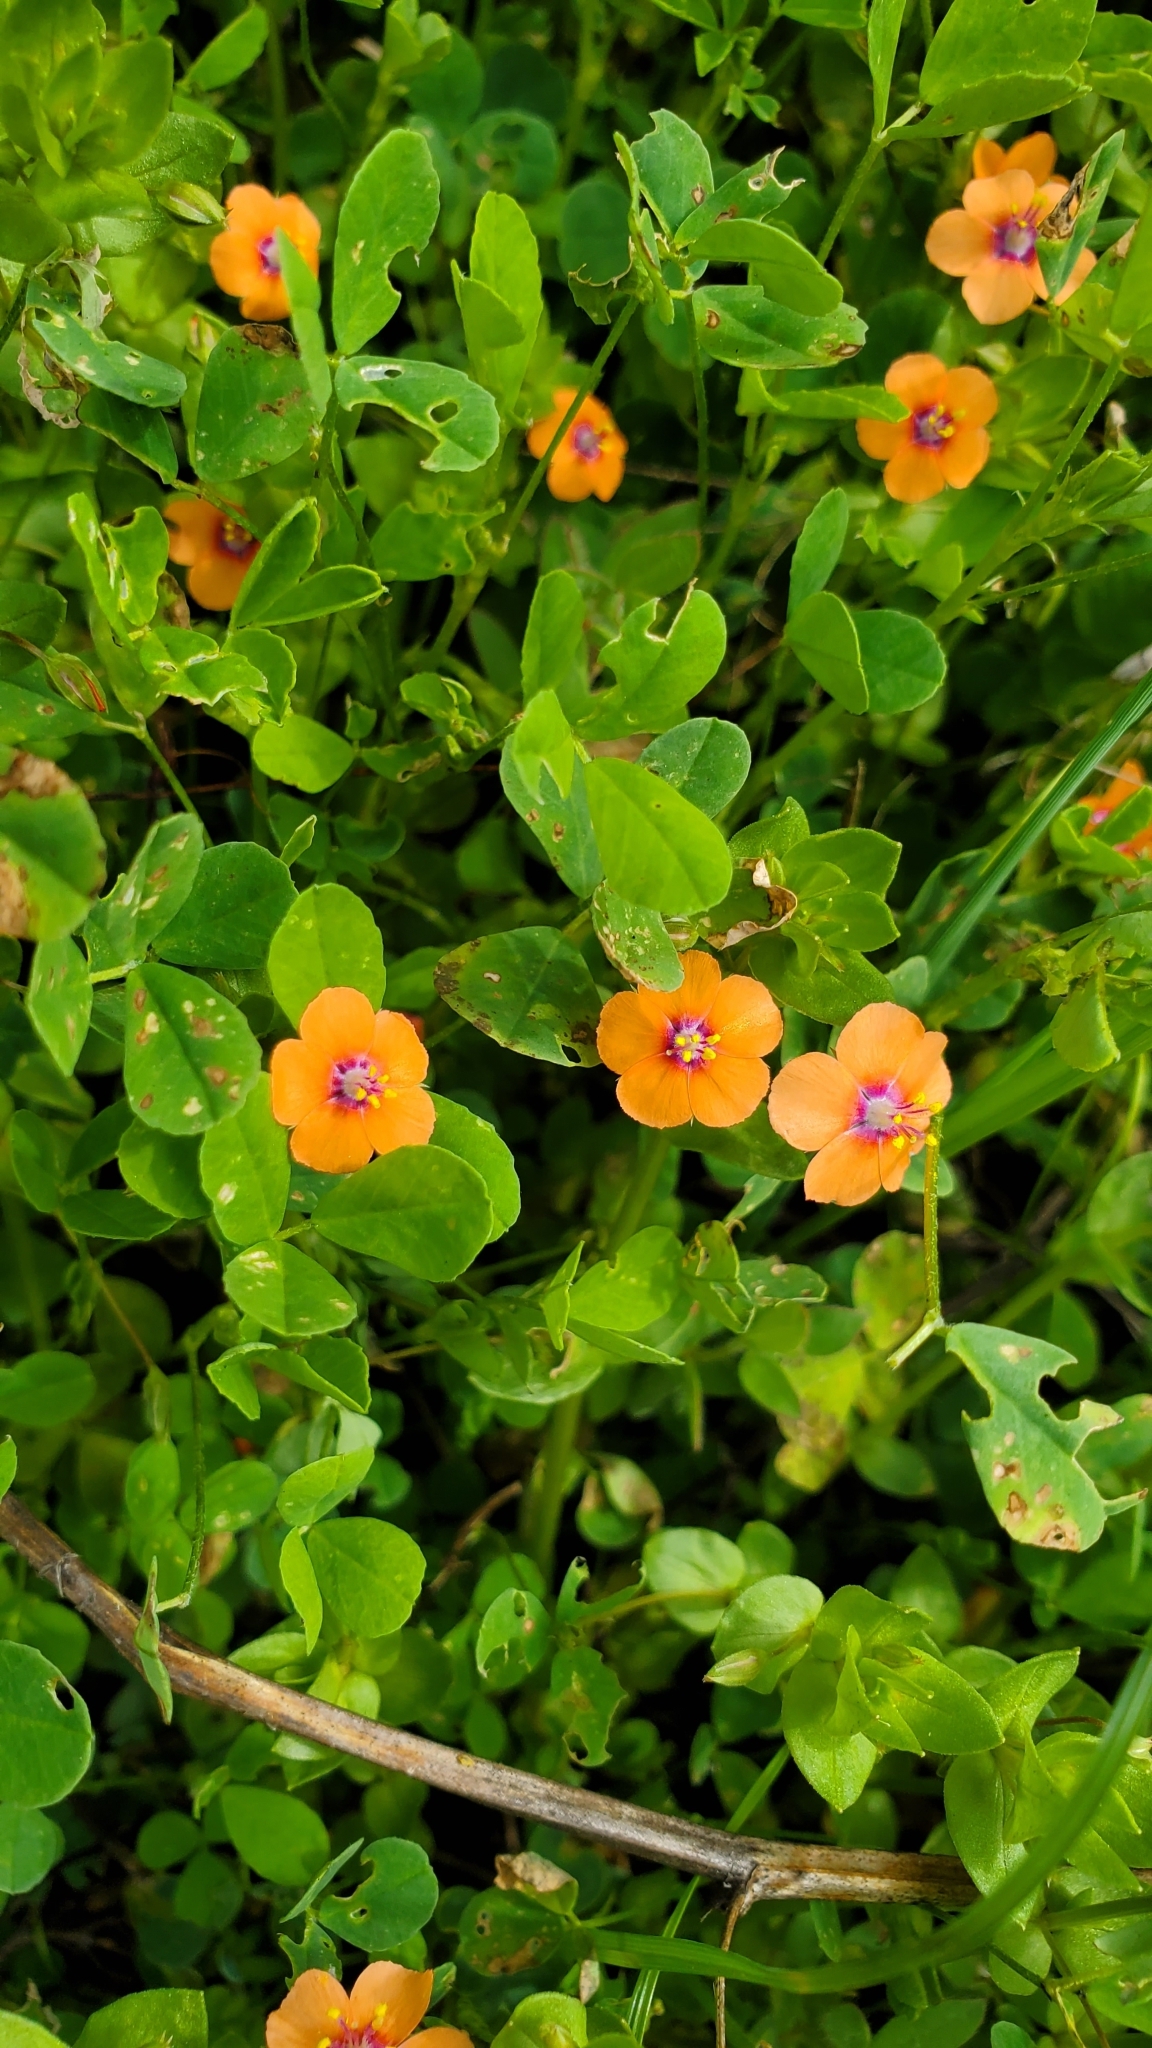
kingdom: Plantae
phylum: Tracheophyta
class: Magnoliopsida
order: Ericales
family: Primulaceae
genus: Lysimachia
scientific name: Lysimachia arvensis
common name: Scarlet pimpernel
